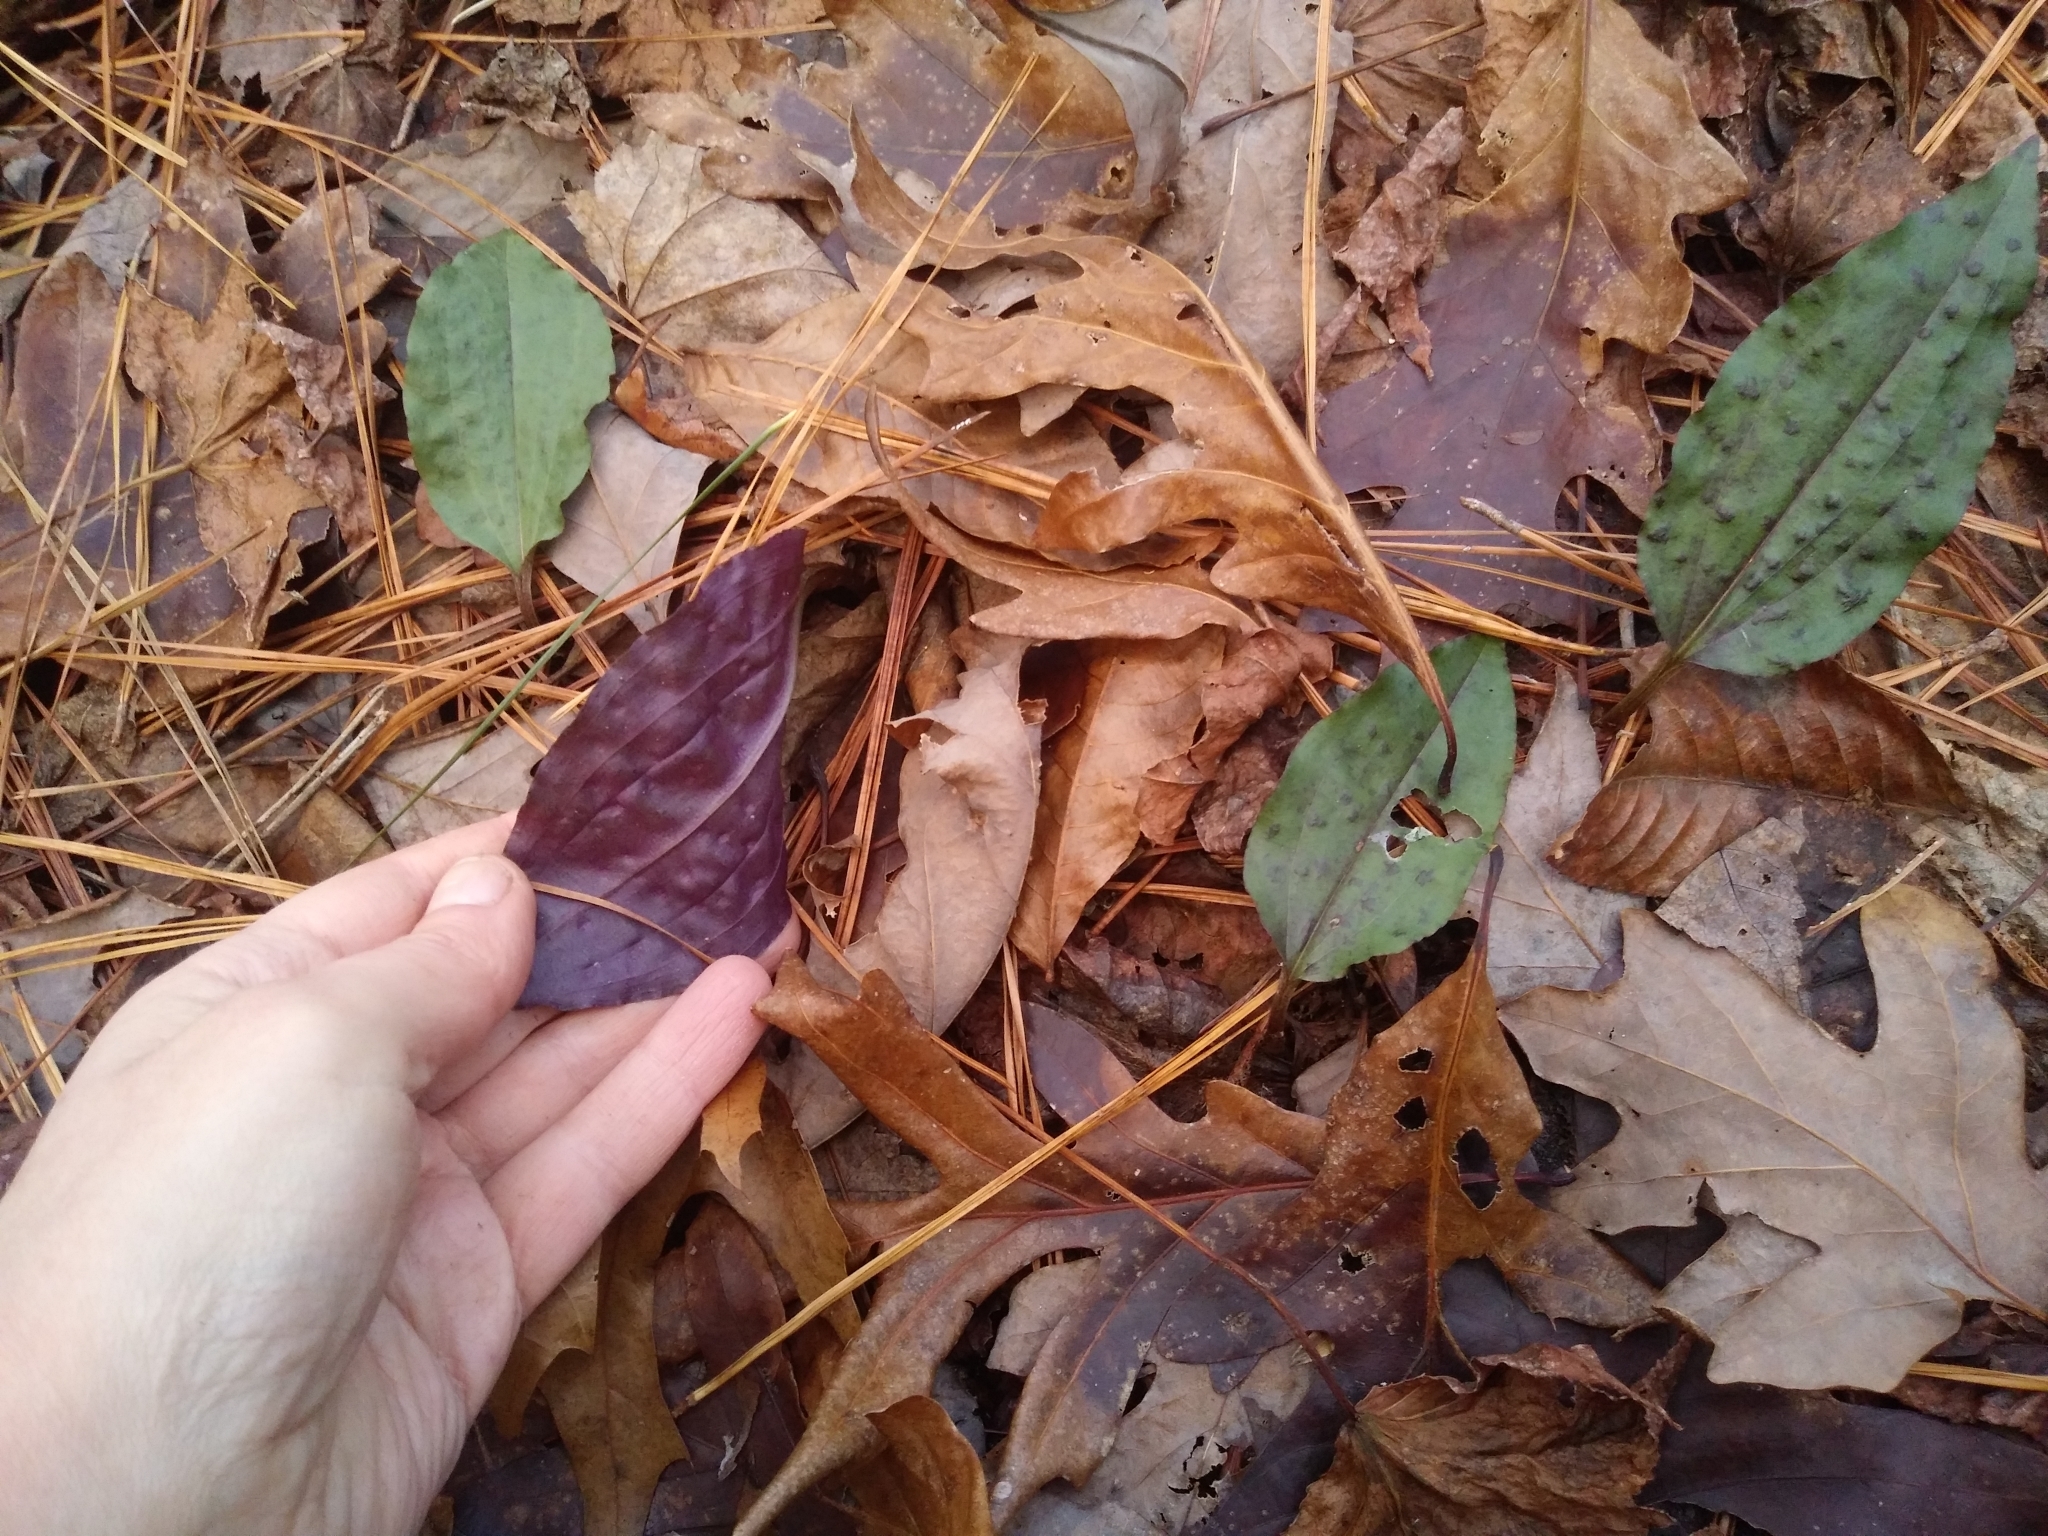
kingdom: Plantae
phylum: Tracheophyta
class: Liliopsida
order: Asparagales
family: Orchidaceae
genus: Tipularia
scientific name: Tipularia discolor
